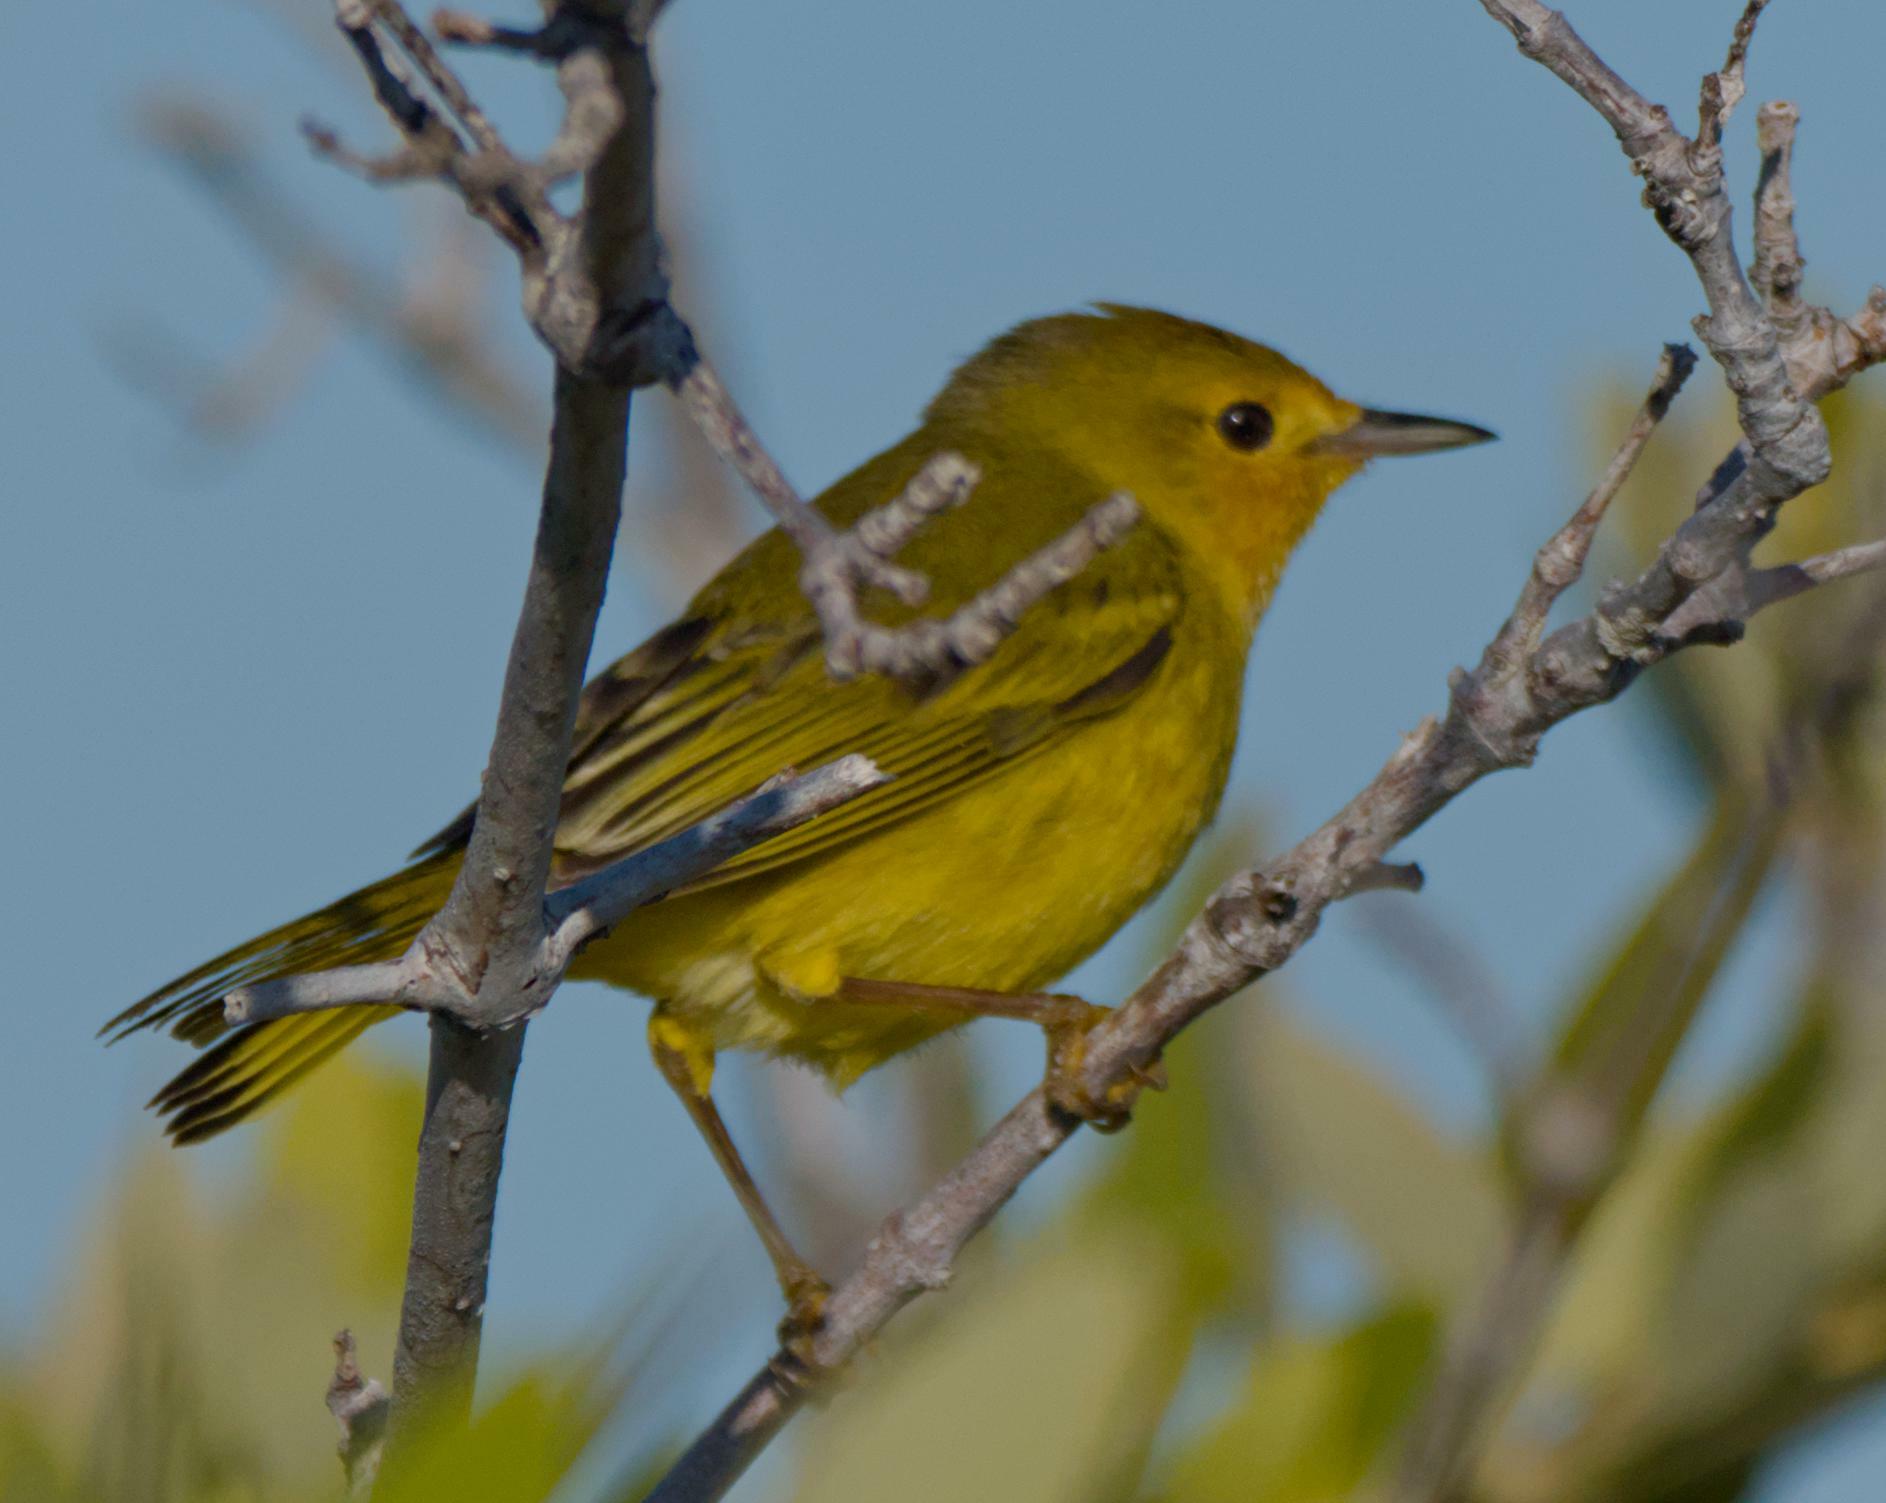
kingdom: Animalia
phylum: Chordata
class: Aves
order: Passeriformes
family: Parulidae
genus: Setophaga
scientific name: Setophaga petechia
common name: Yellow warbler
